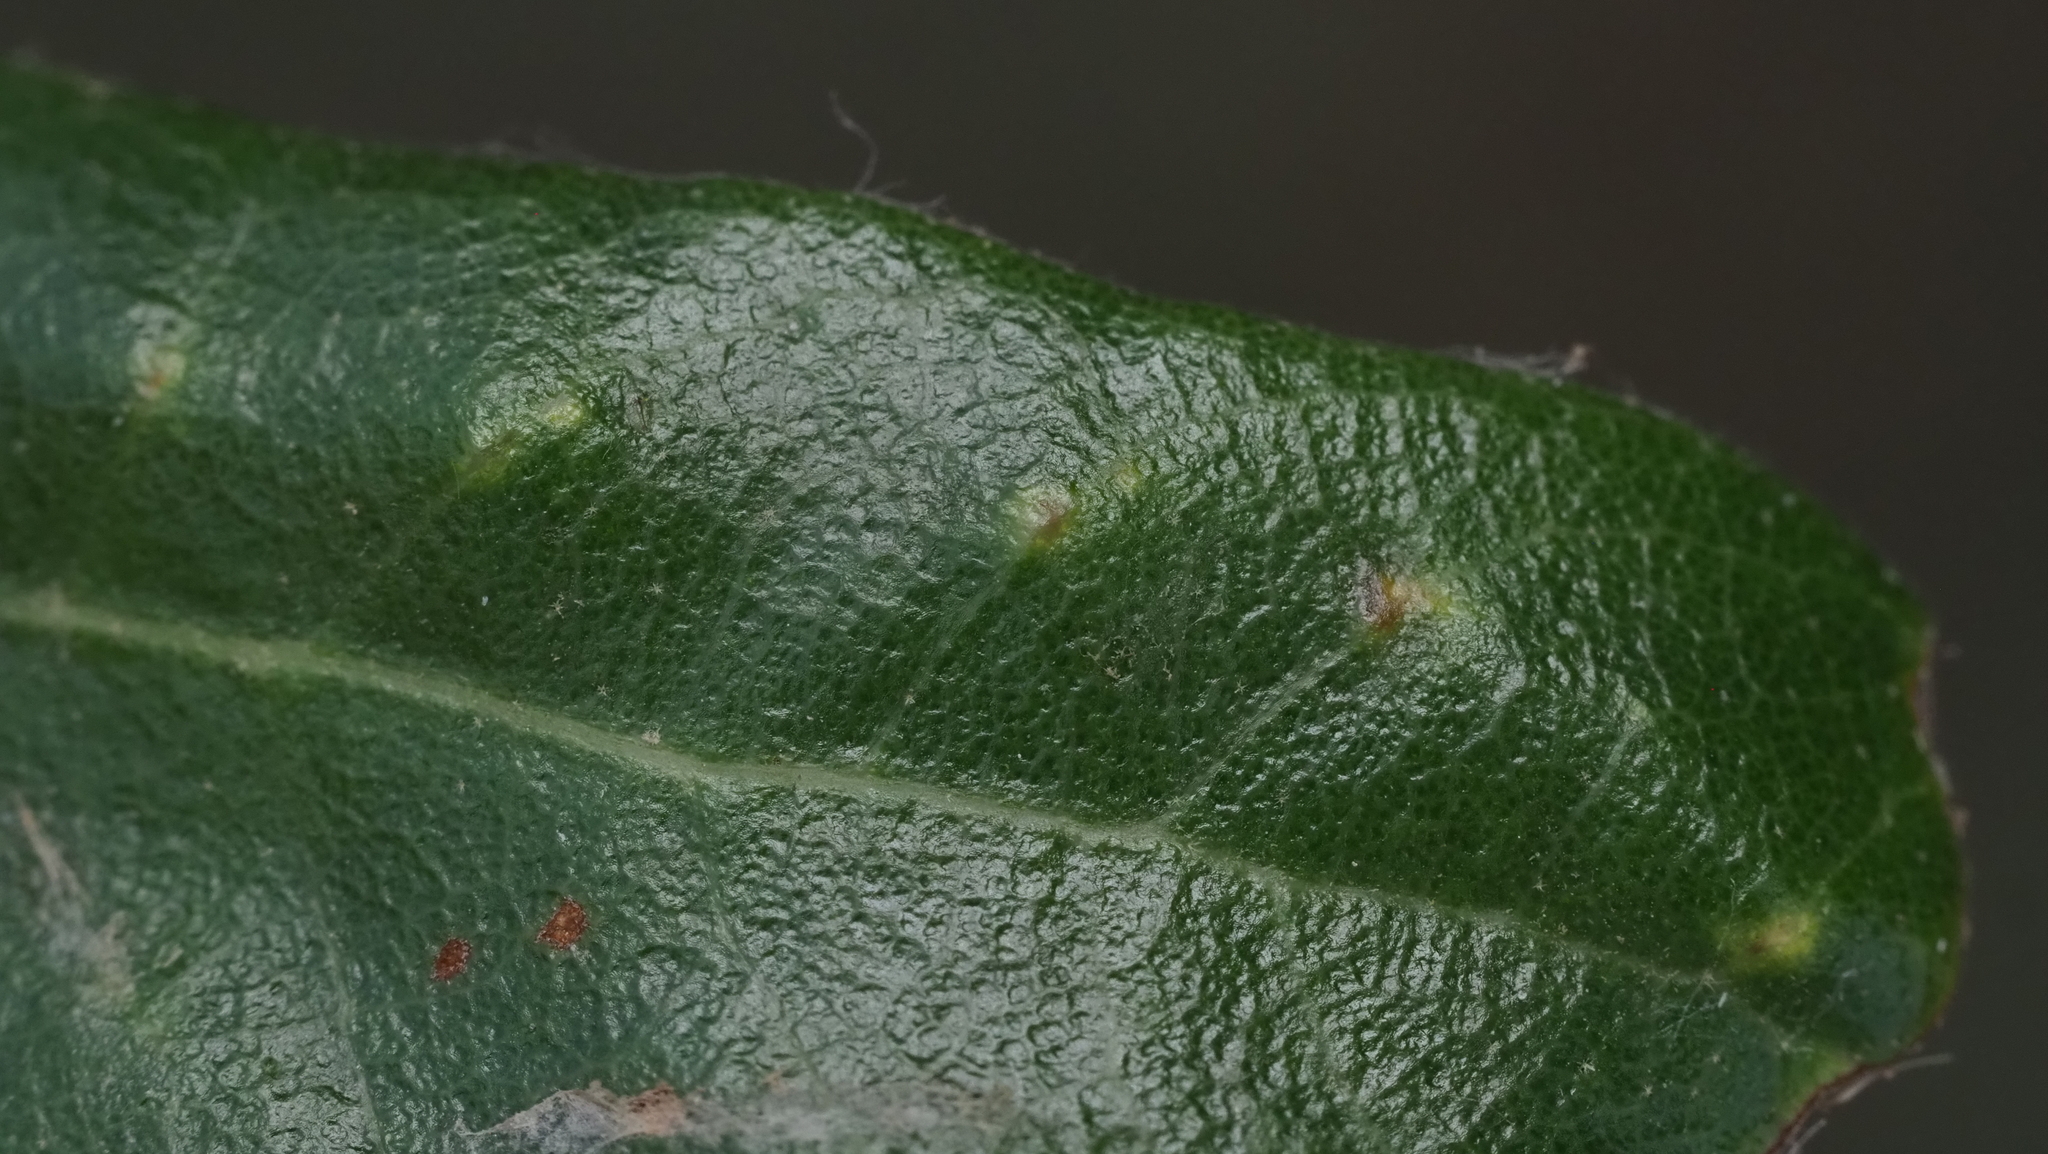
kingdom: Animalia
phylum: Arthropoda
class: Insecta
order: Hymenoptera
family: Cynipidae
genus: Belonocnema
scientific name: Belonocnema kinseyi
